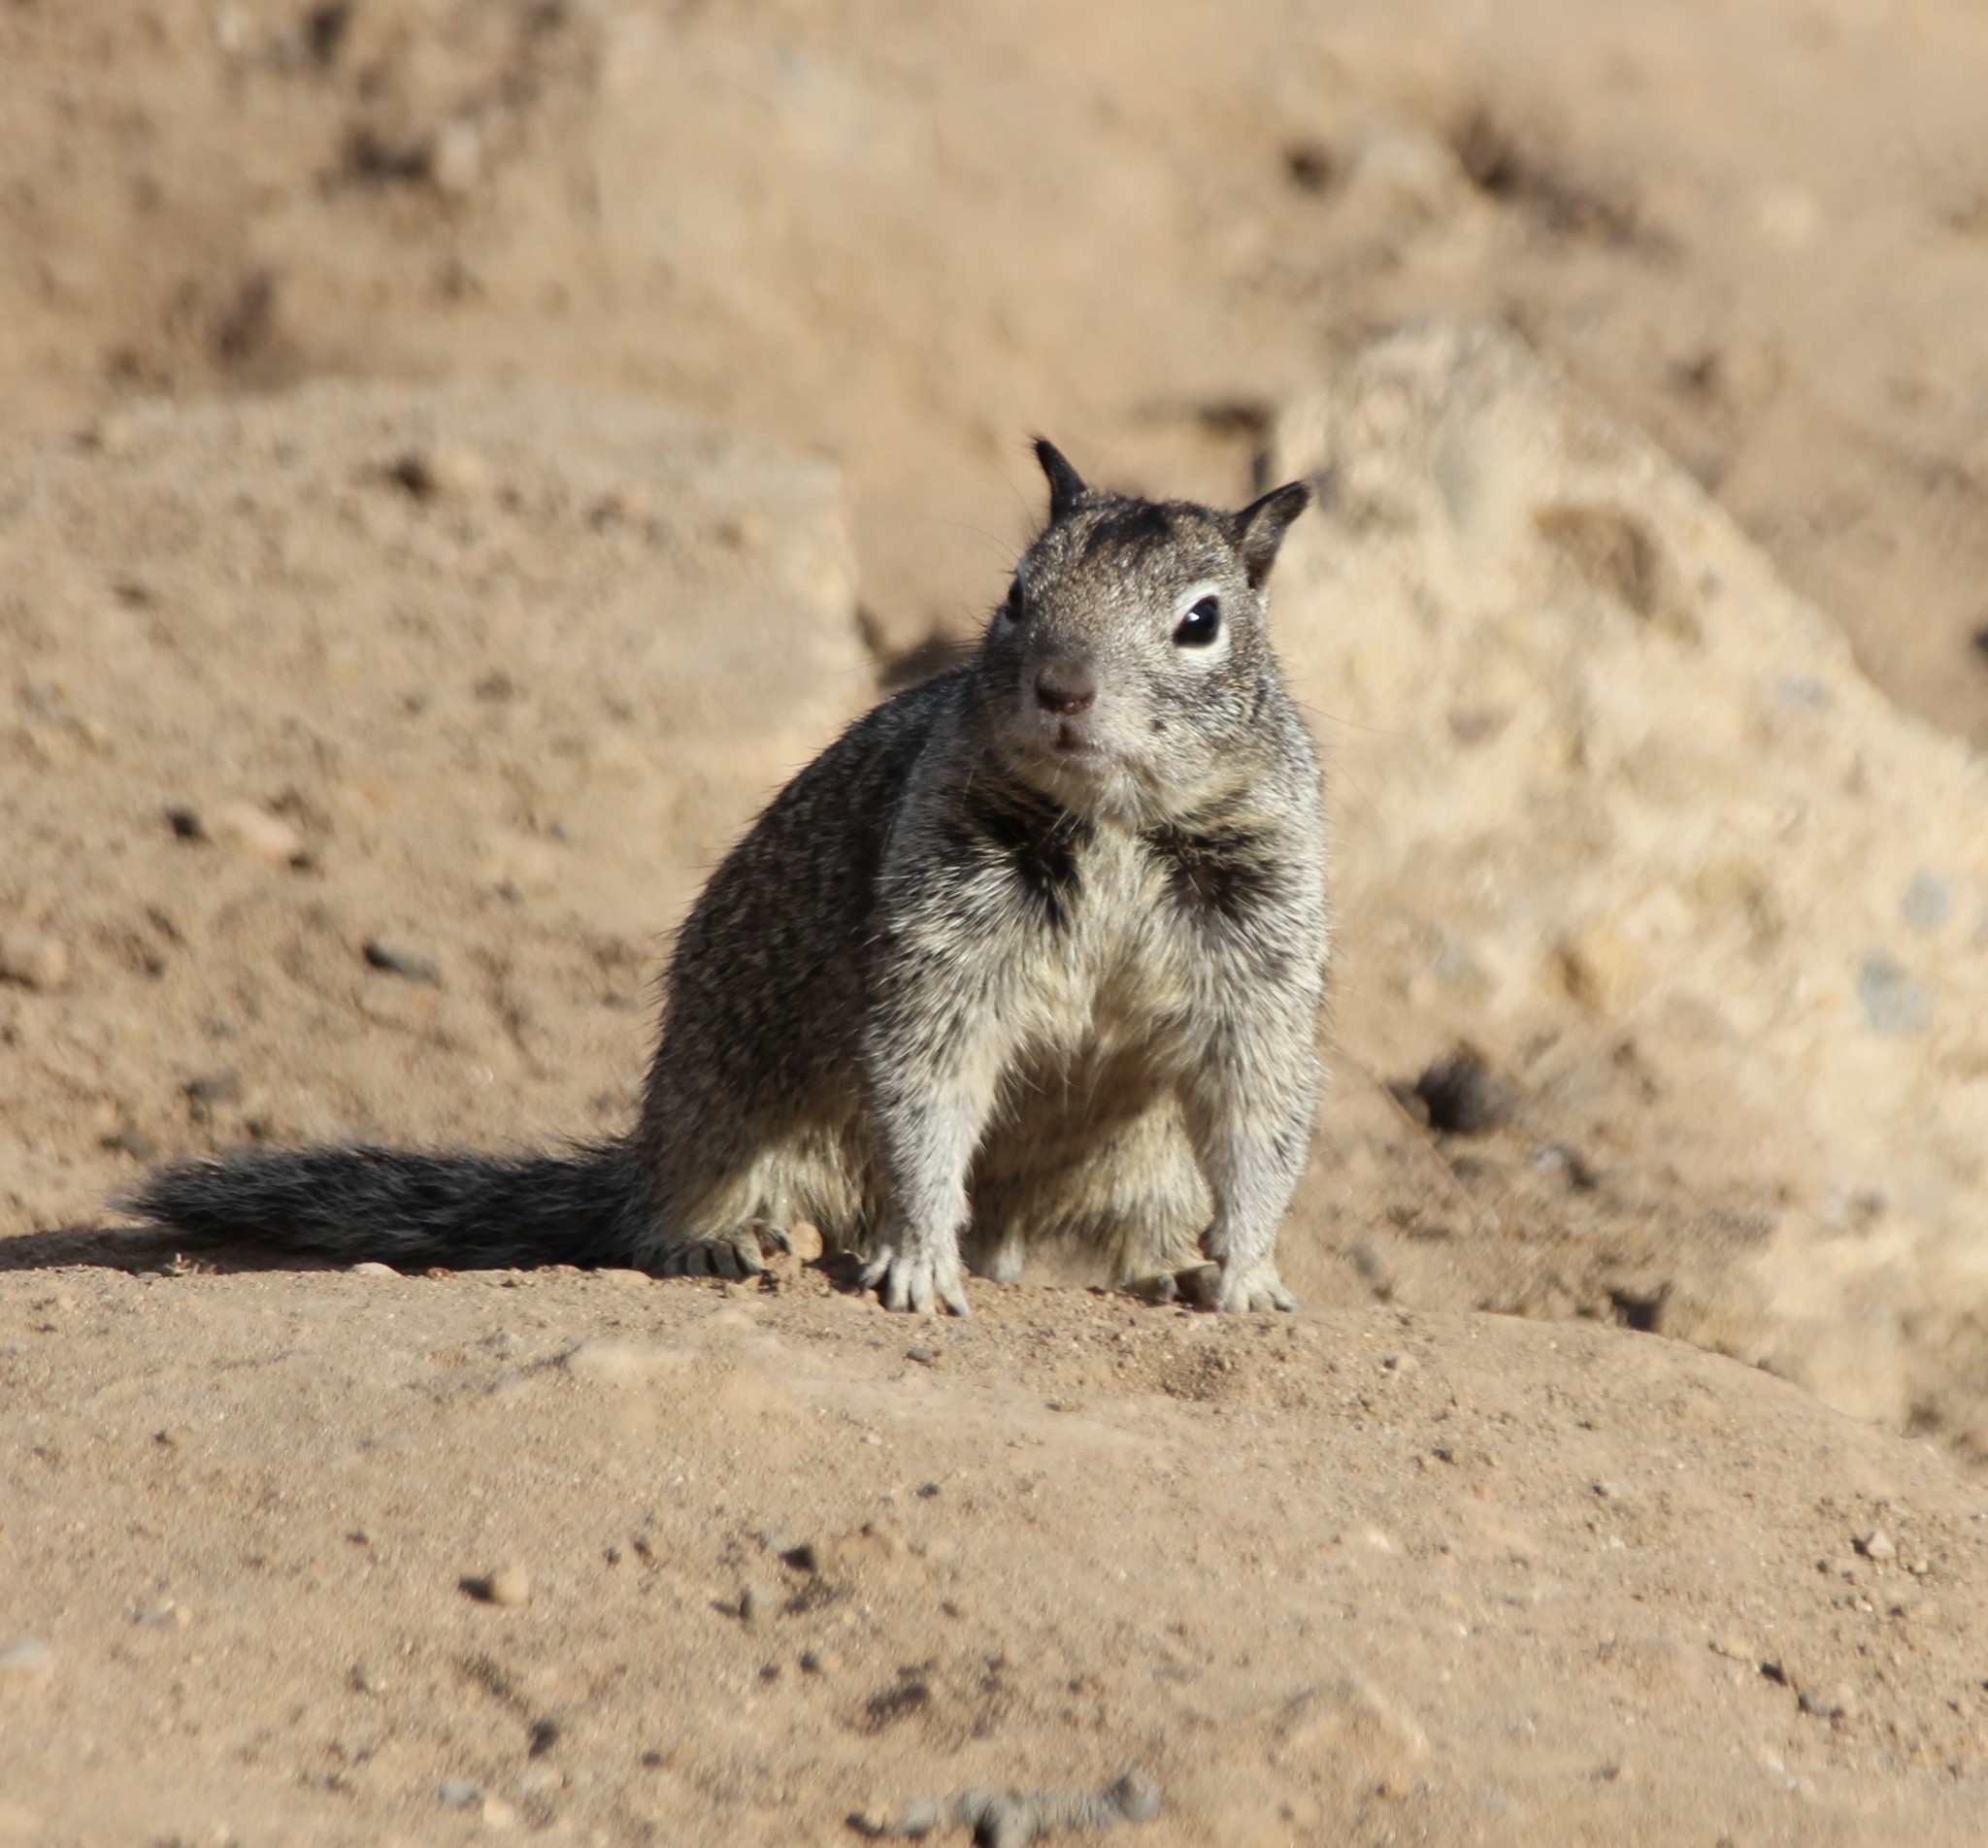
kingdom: Animalia
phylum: Chordata
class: Mammalia
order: Rodentia
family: Sciuridae
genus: Otospermophilus
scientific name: Otospermophilus beecheyi
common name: California ground squirrel
